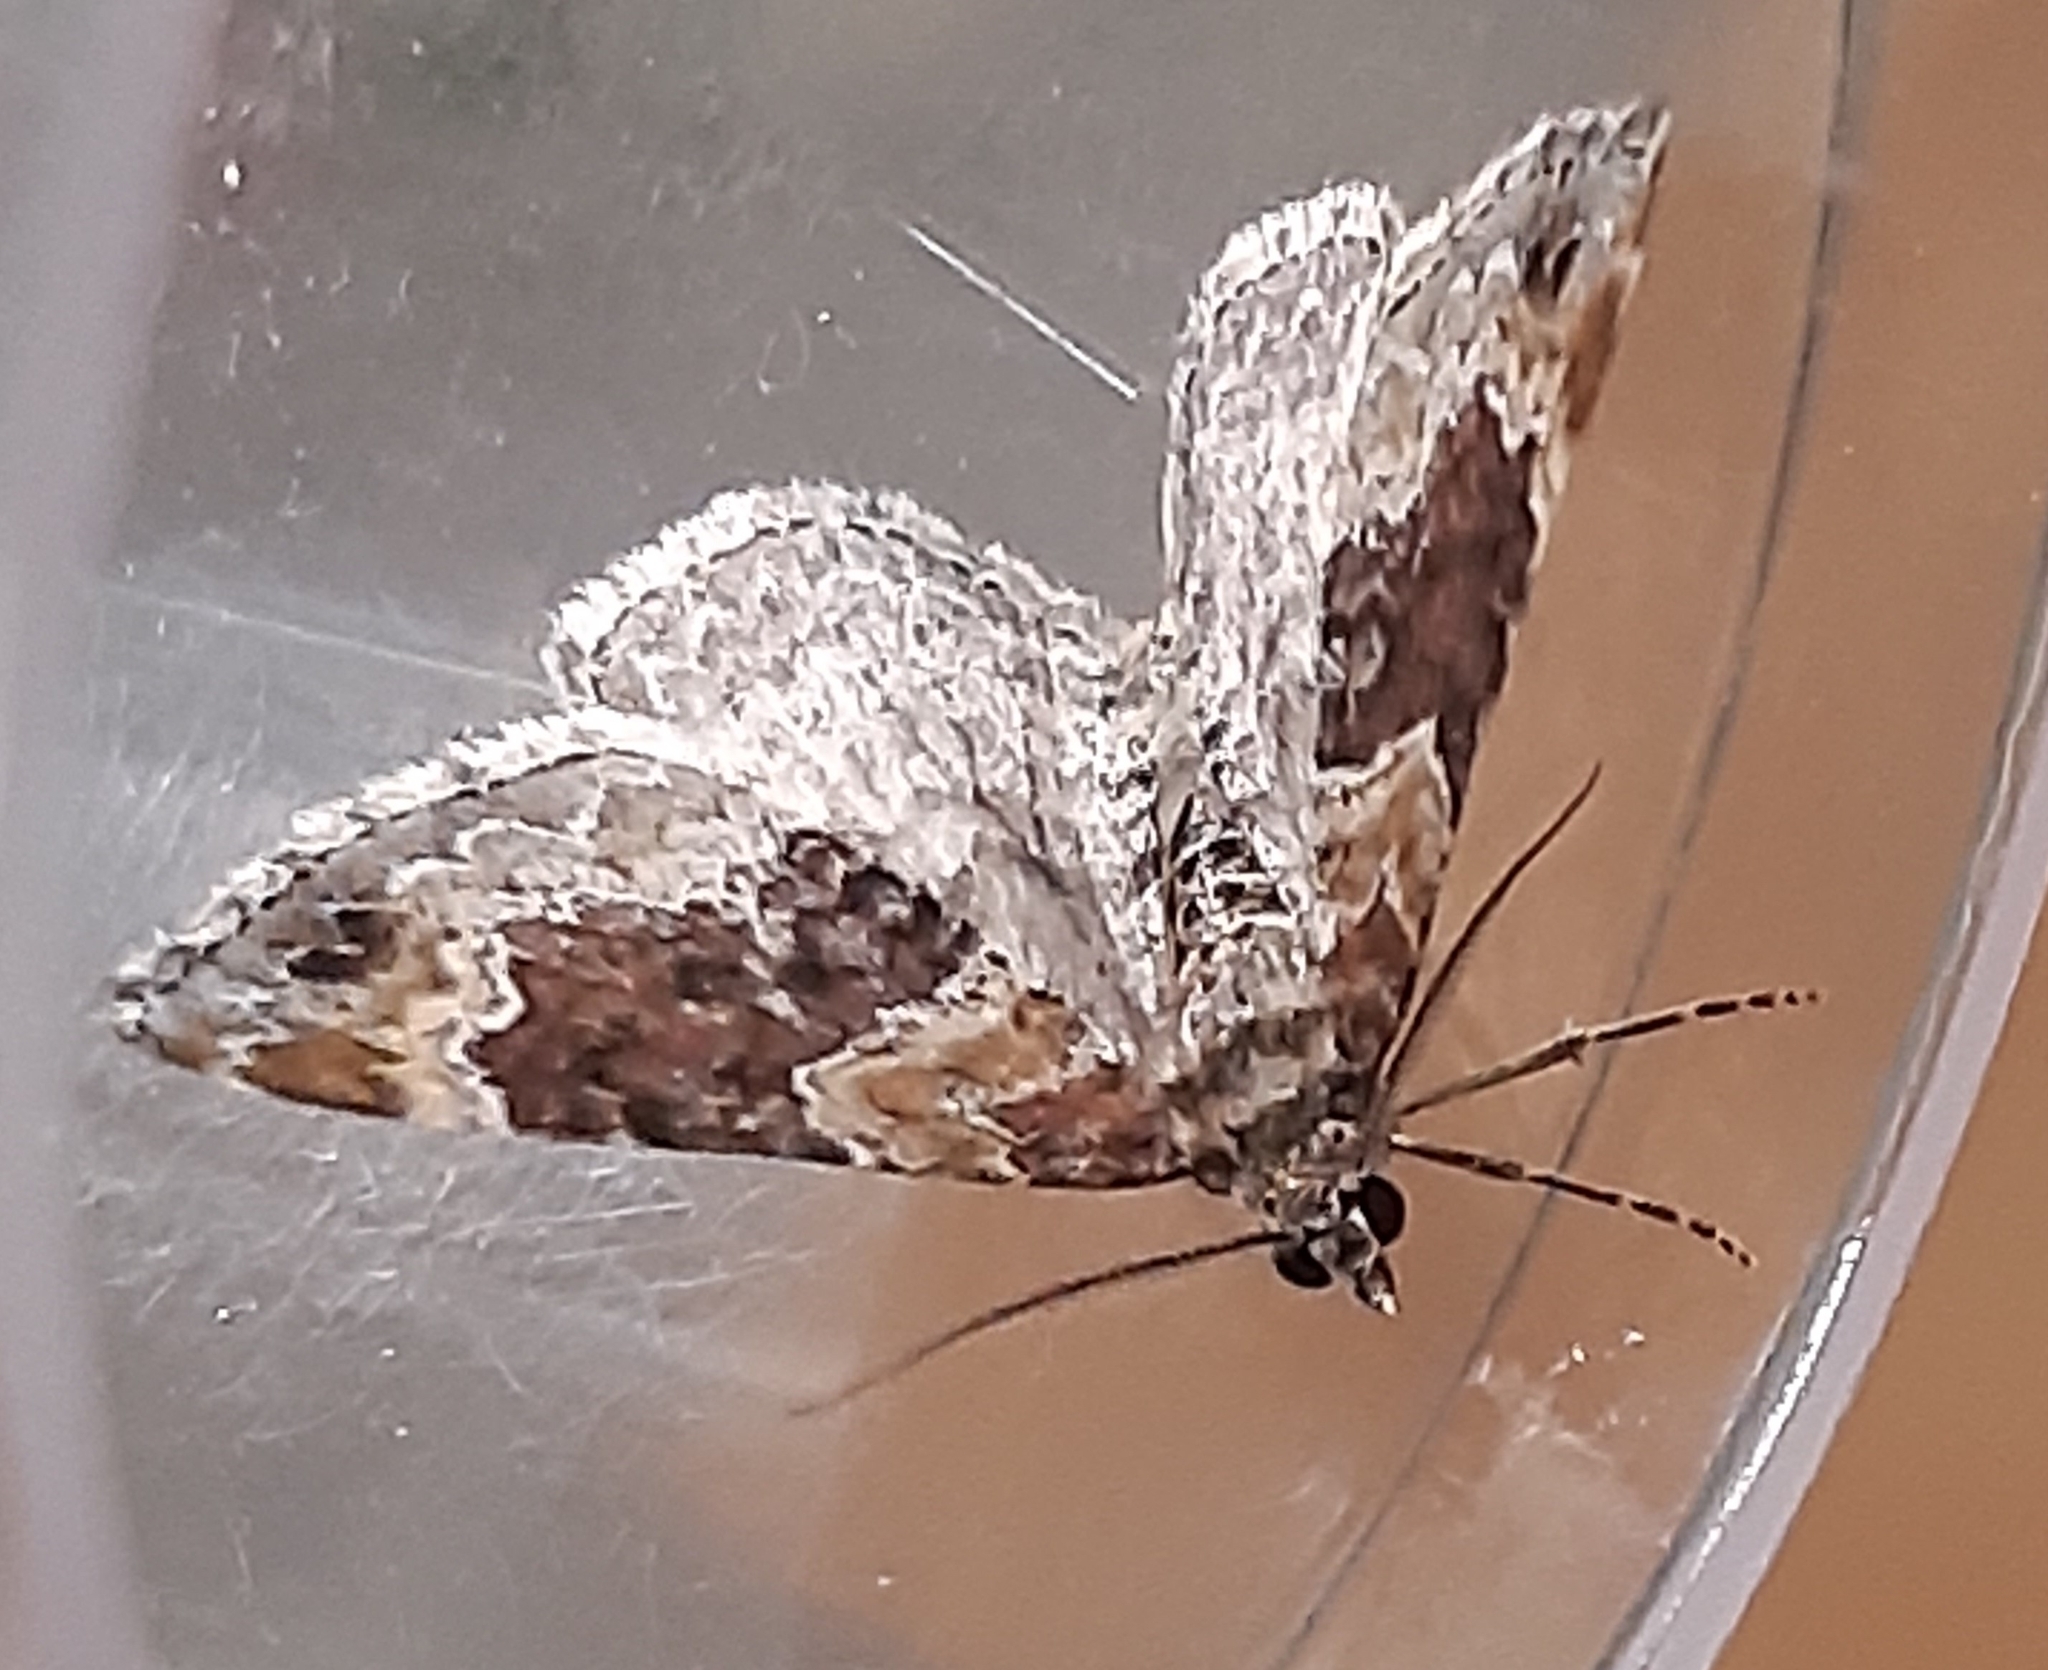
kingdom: Animalia
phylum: Arthropoda
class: Insecta
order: Lepidoptera
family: Geometridae
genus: Xanthorhoe
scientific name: Xanthorhoe ferrugata
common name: Dark-barred twin-spot carpet
